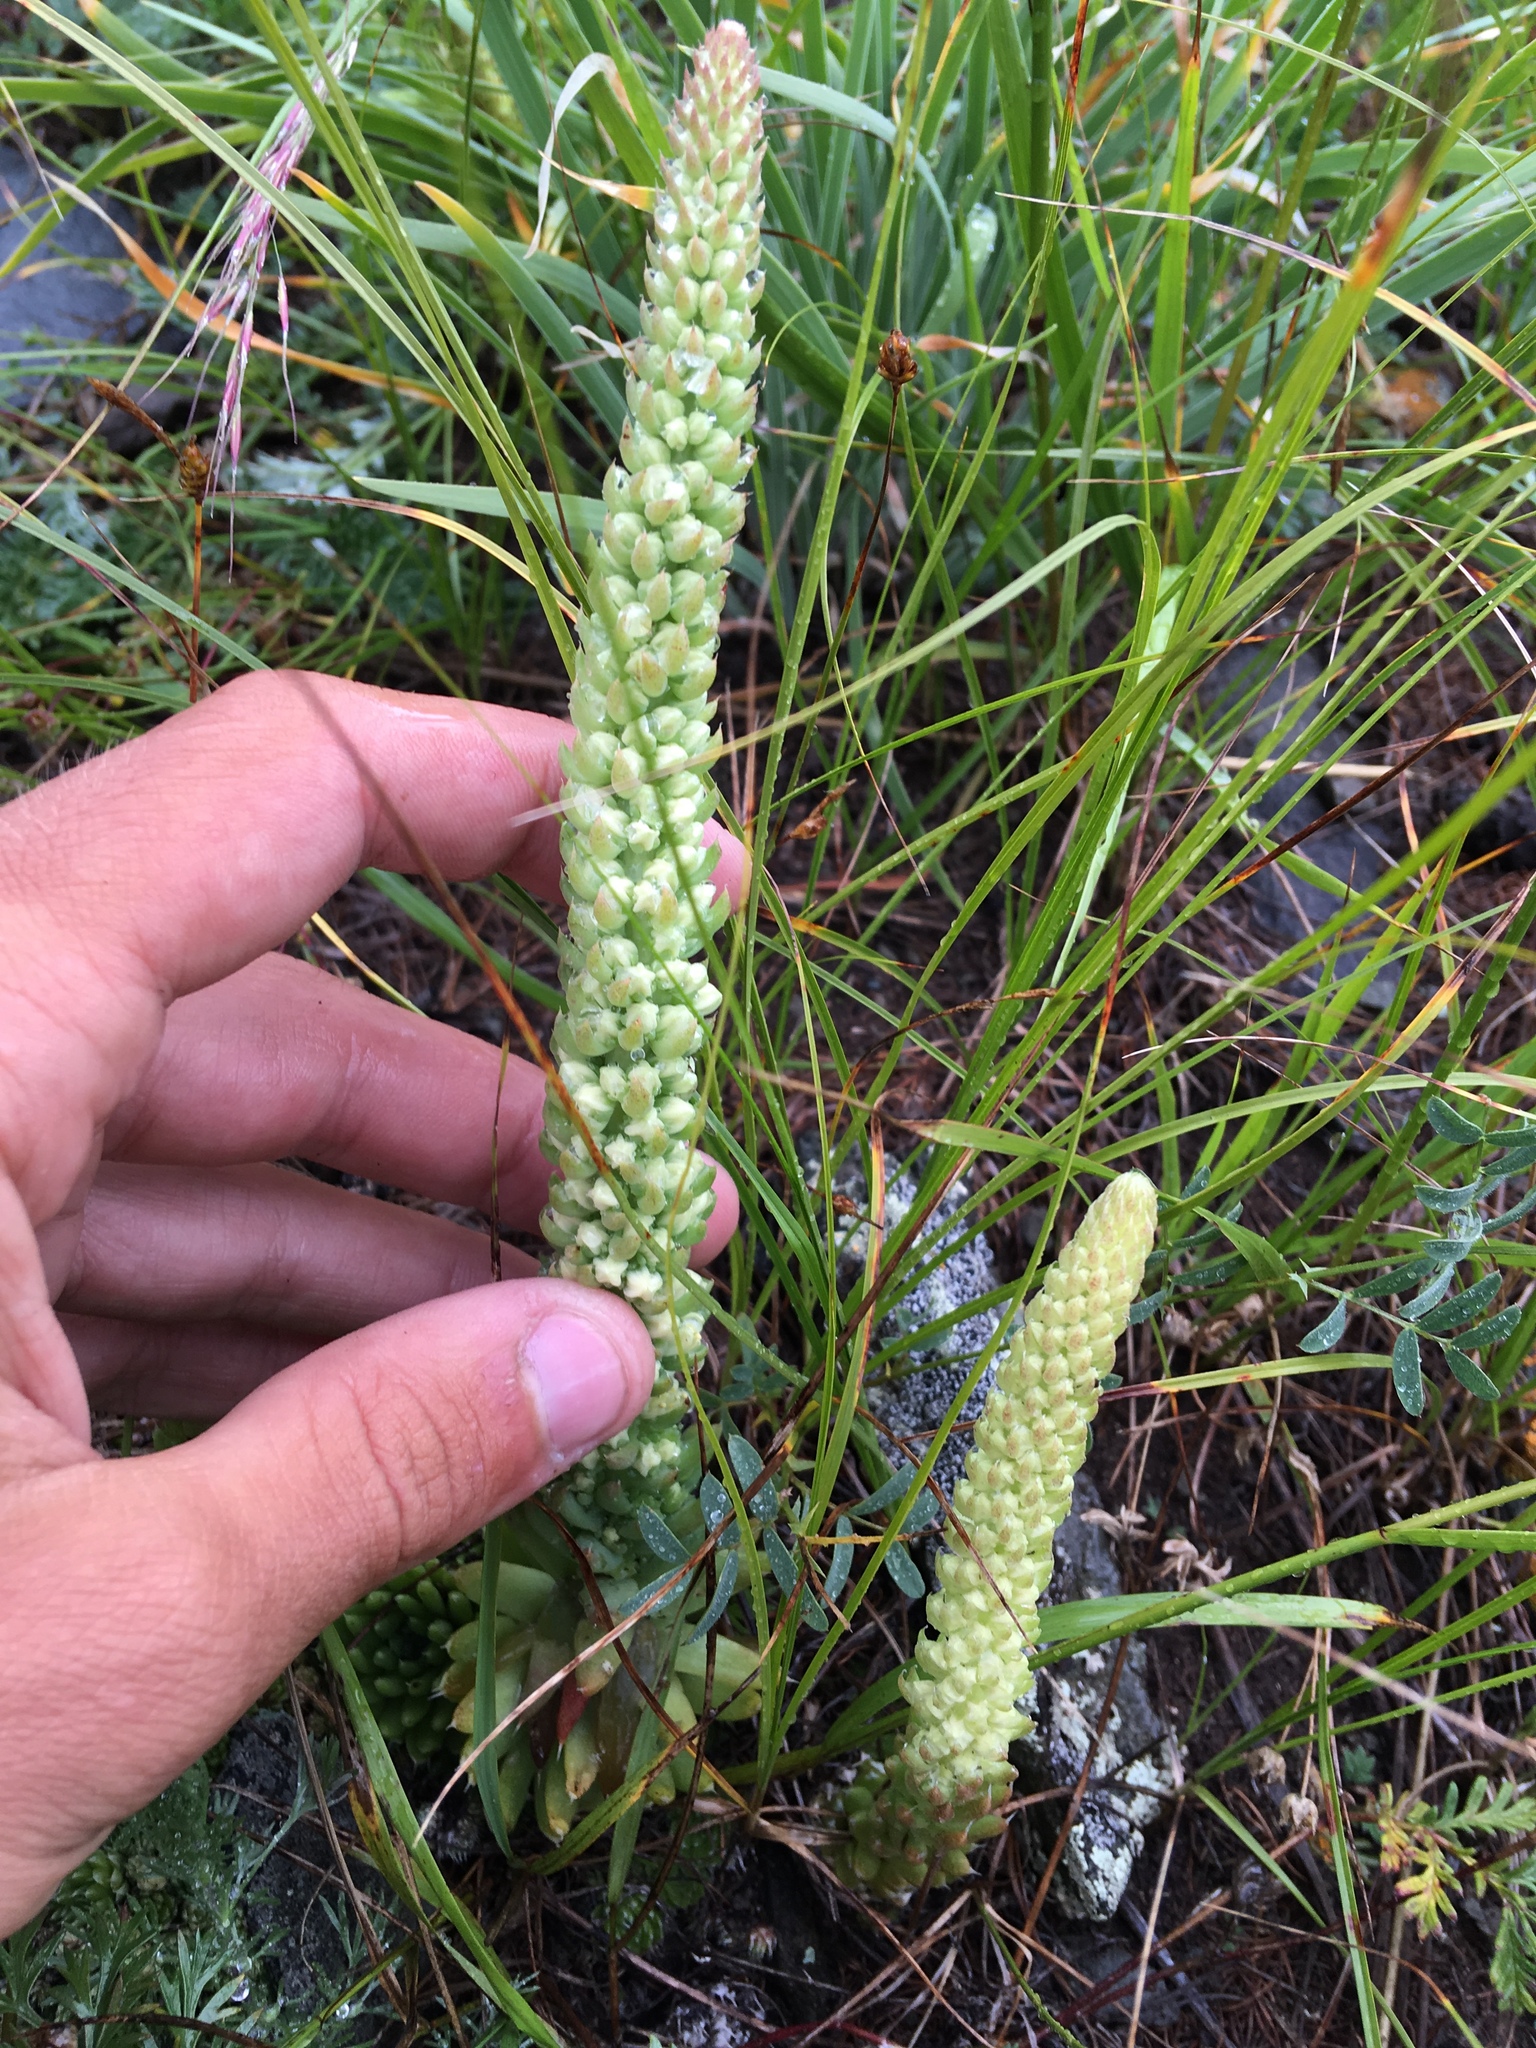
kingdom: Plantae
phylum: Tracheophyta
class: Magnoliopsida
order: Saxifragales
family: Crassulaceae
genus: Orostachys
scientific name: Orostachys spinosa
